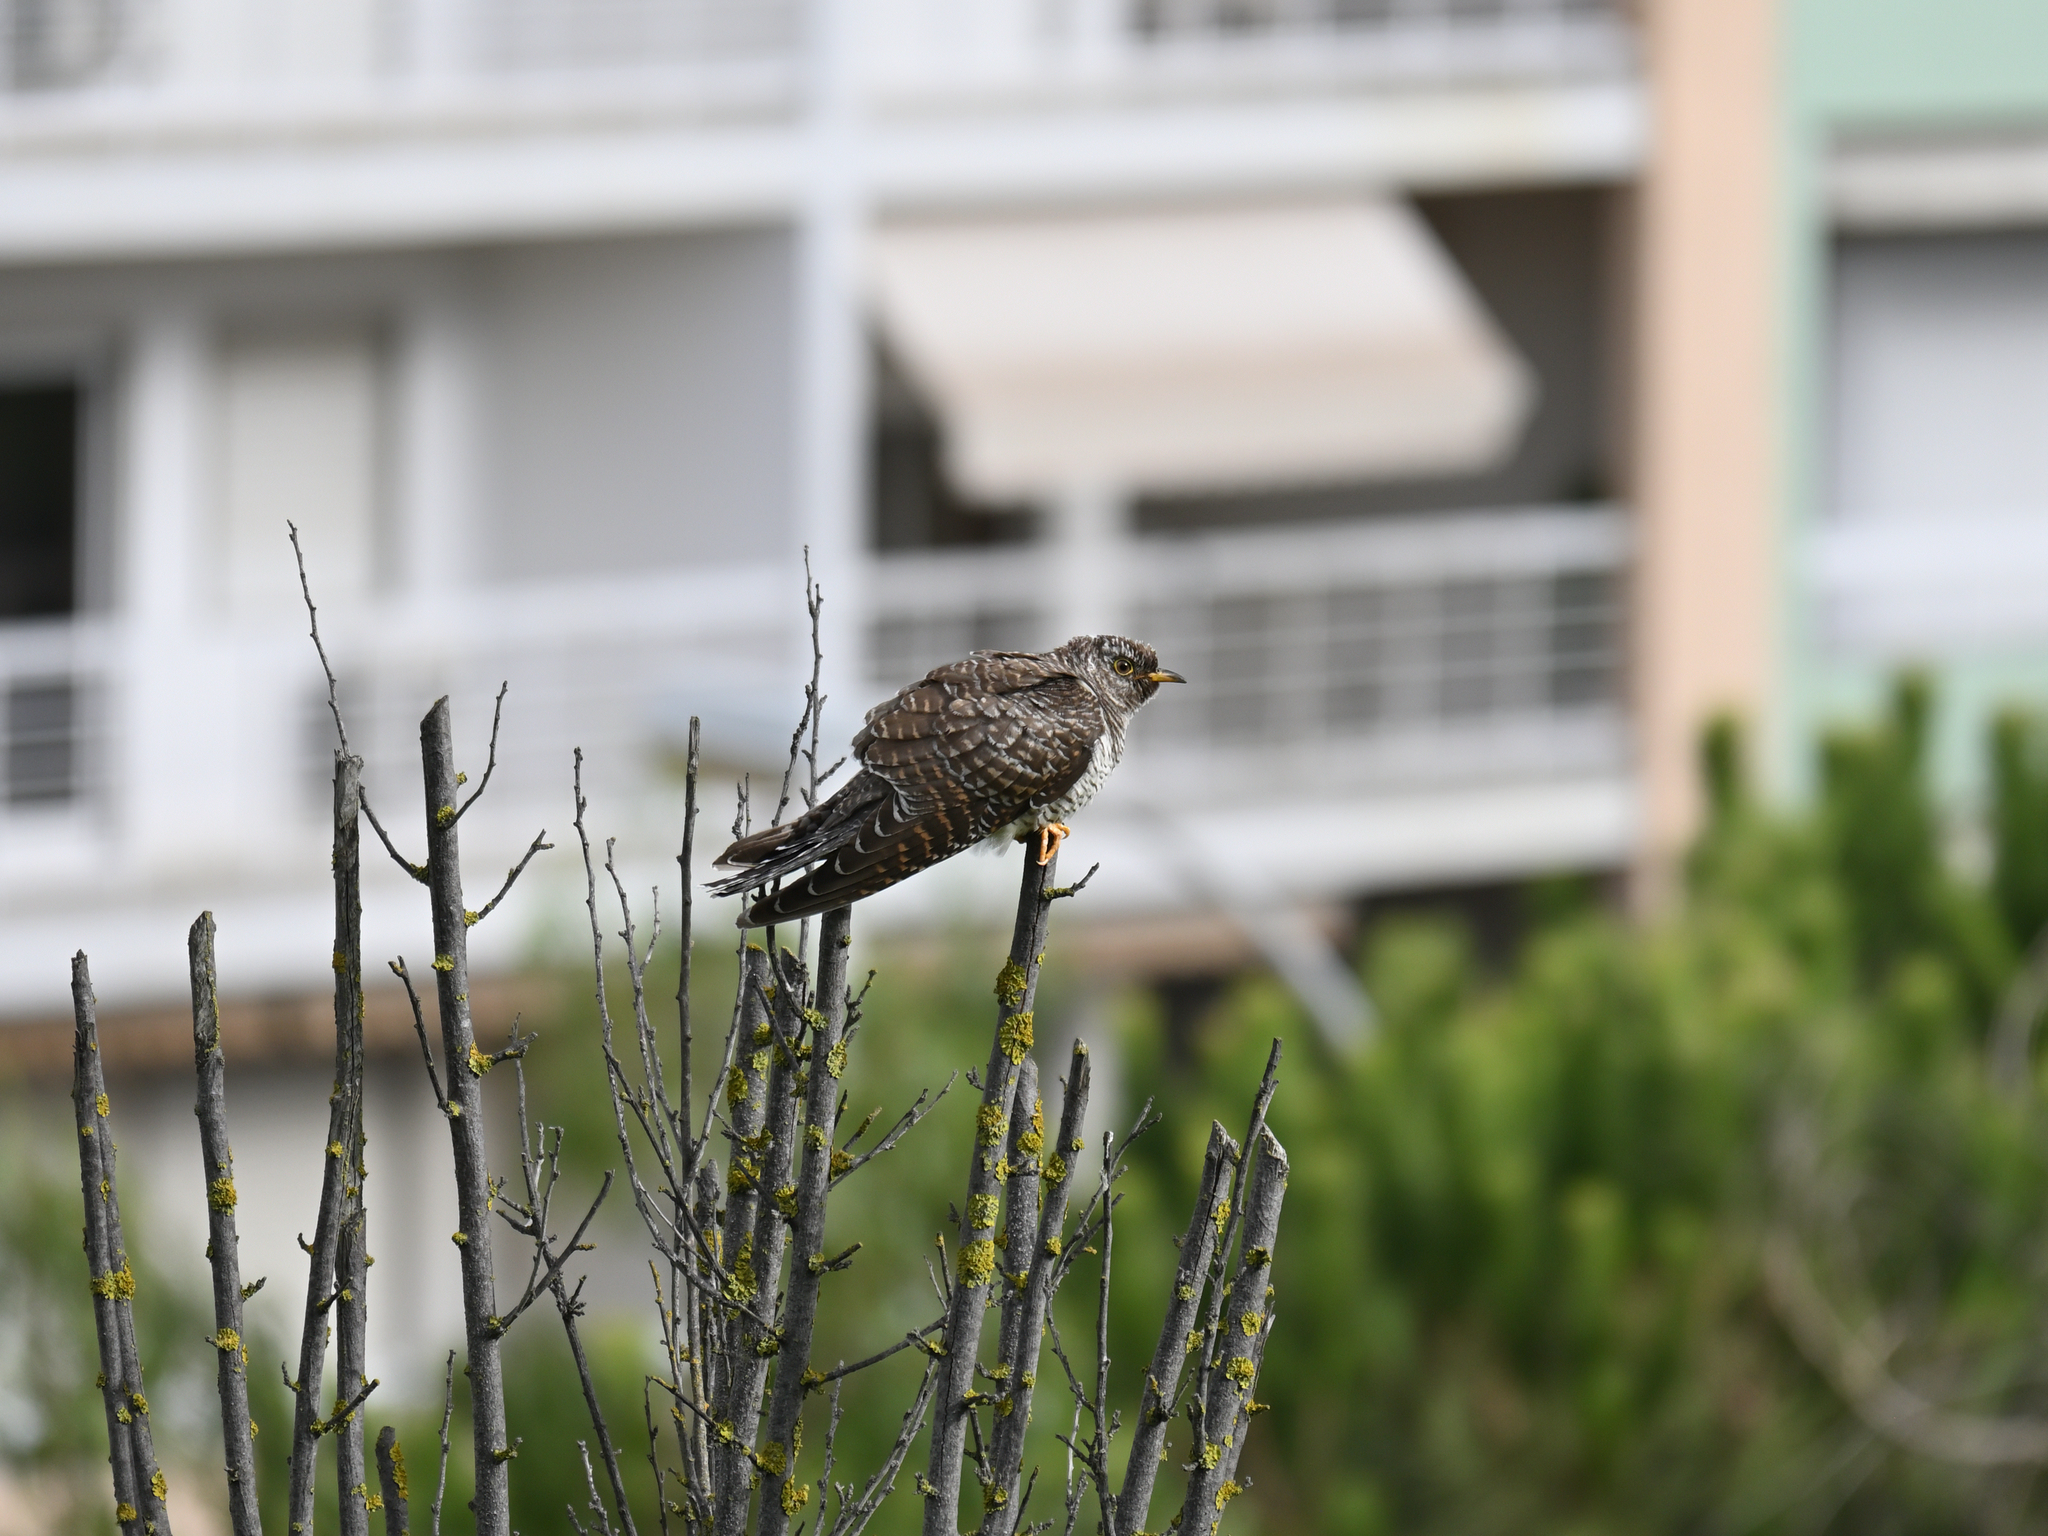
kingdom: Animalia
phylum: Chordata
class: Aves
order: Cuculiformes
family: Cuculidae
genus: Cuculus
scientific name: Cuculus canorus
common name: Common cuckoo
